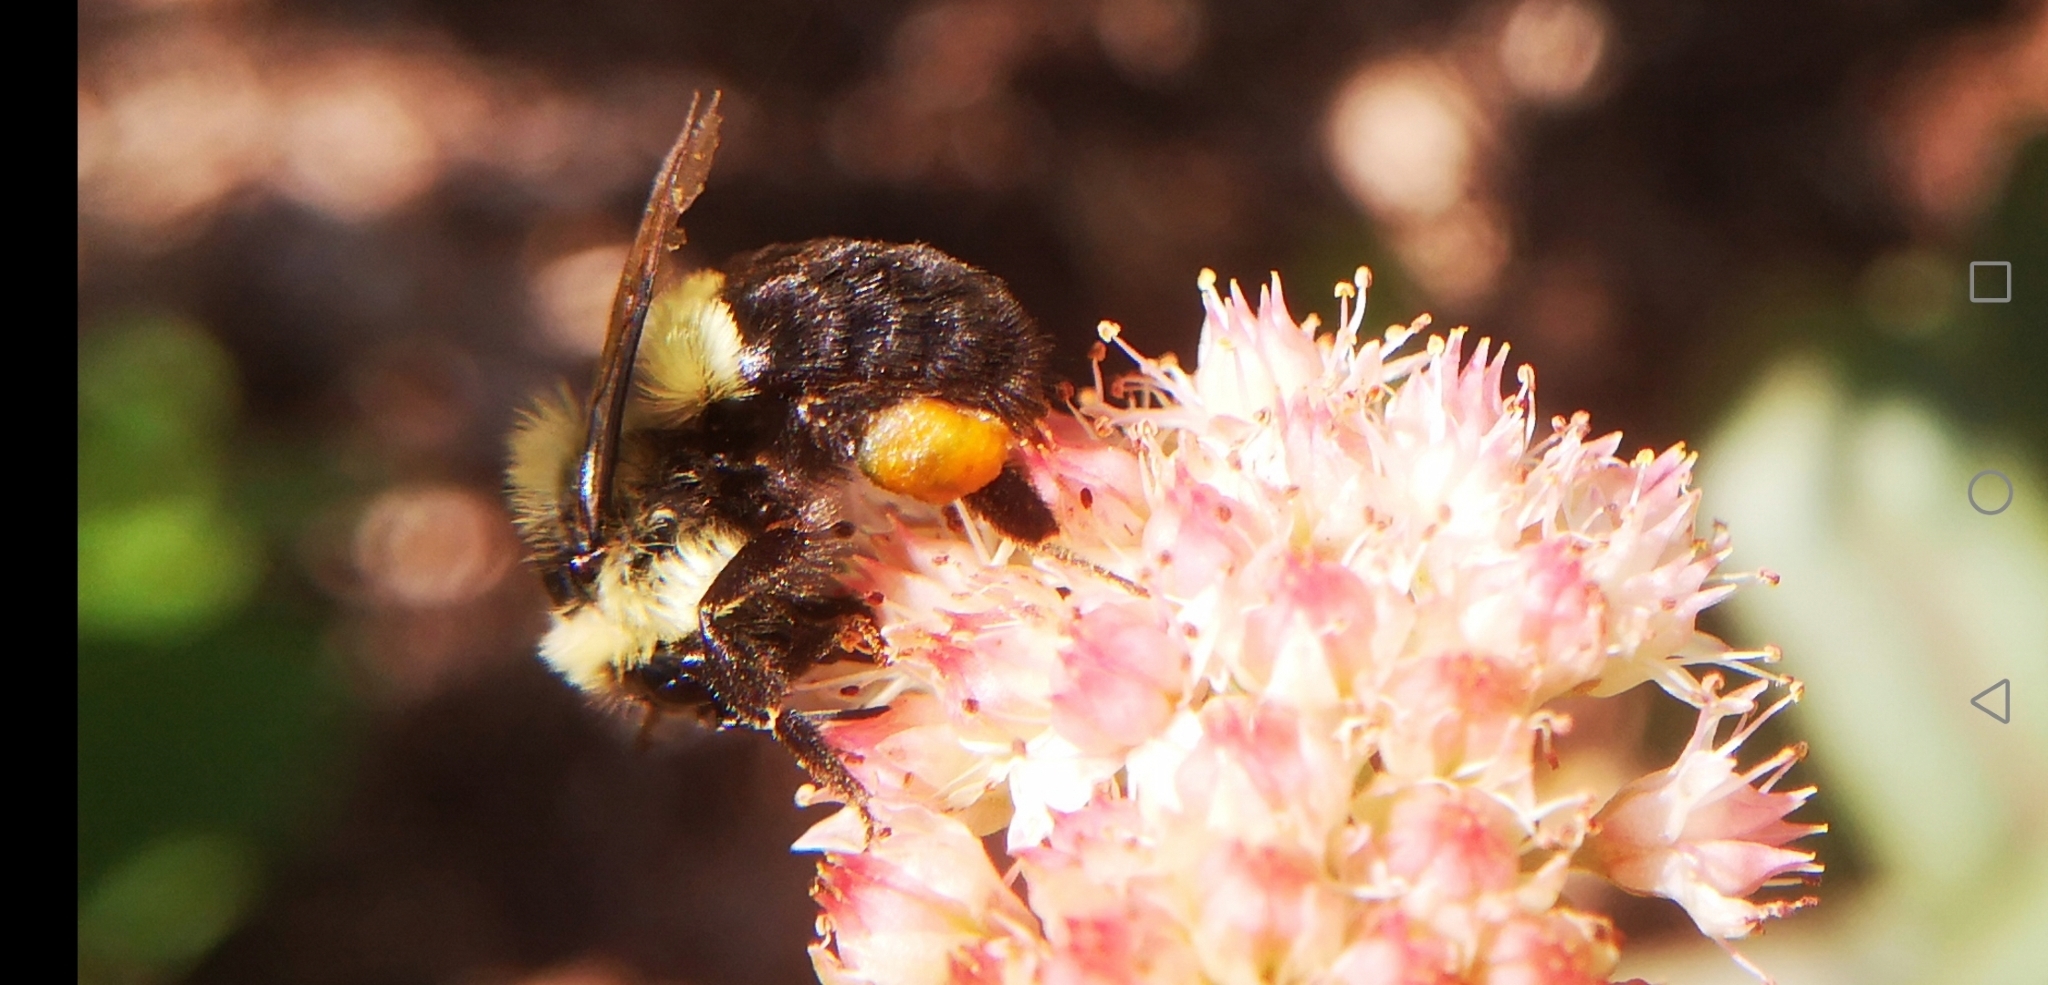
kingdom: Animalia
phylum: Arthropoda
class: Insecta
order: Hymenoptera
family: Apidae
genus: Bombus
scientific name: Bombus impatiens
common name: Common eastern bumble bee
